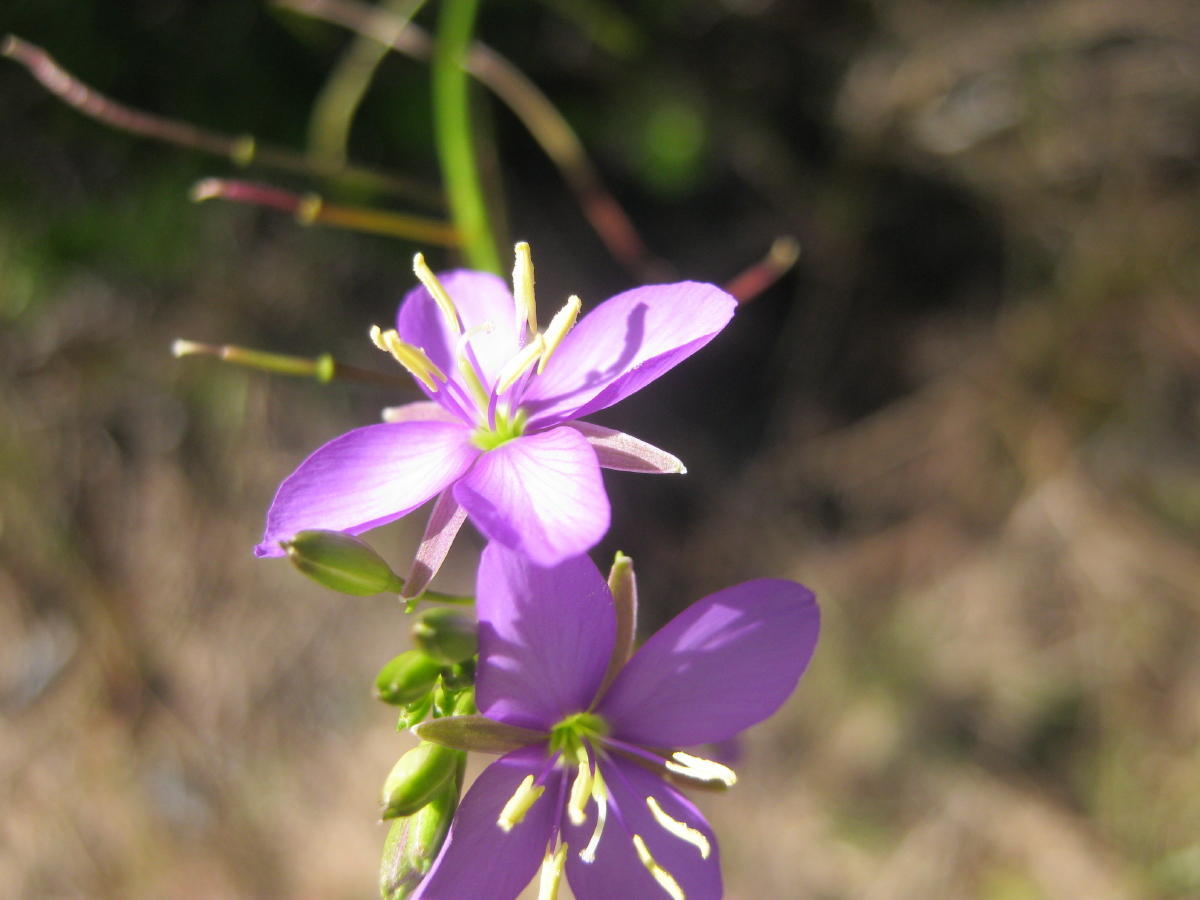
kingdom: Plantae
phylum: Tracheophyta
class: Magnoliopsida
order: Brassicales
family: Brassicaceae
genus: Heliophila
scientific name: Heliophila subulata
